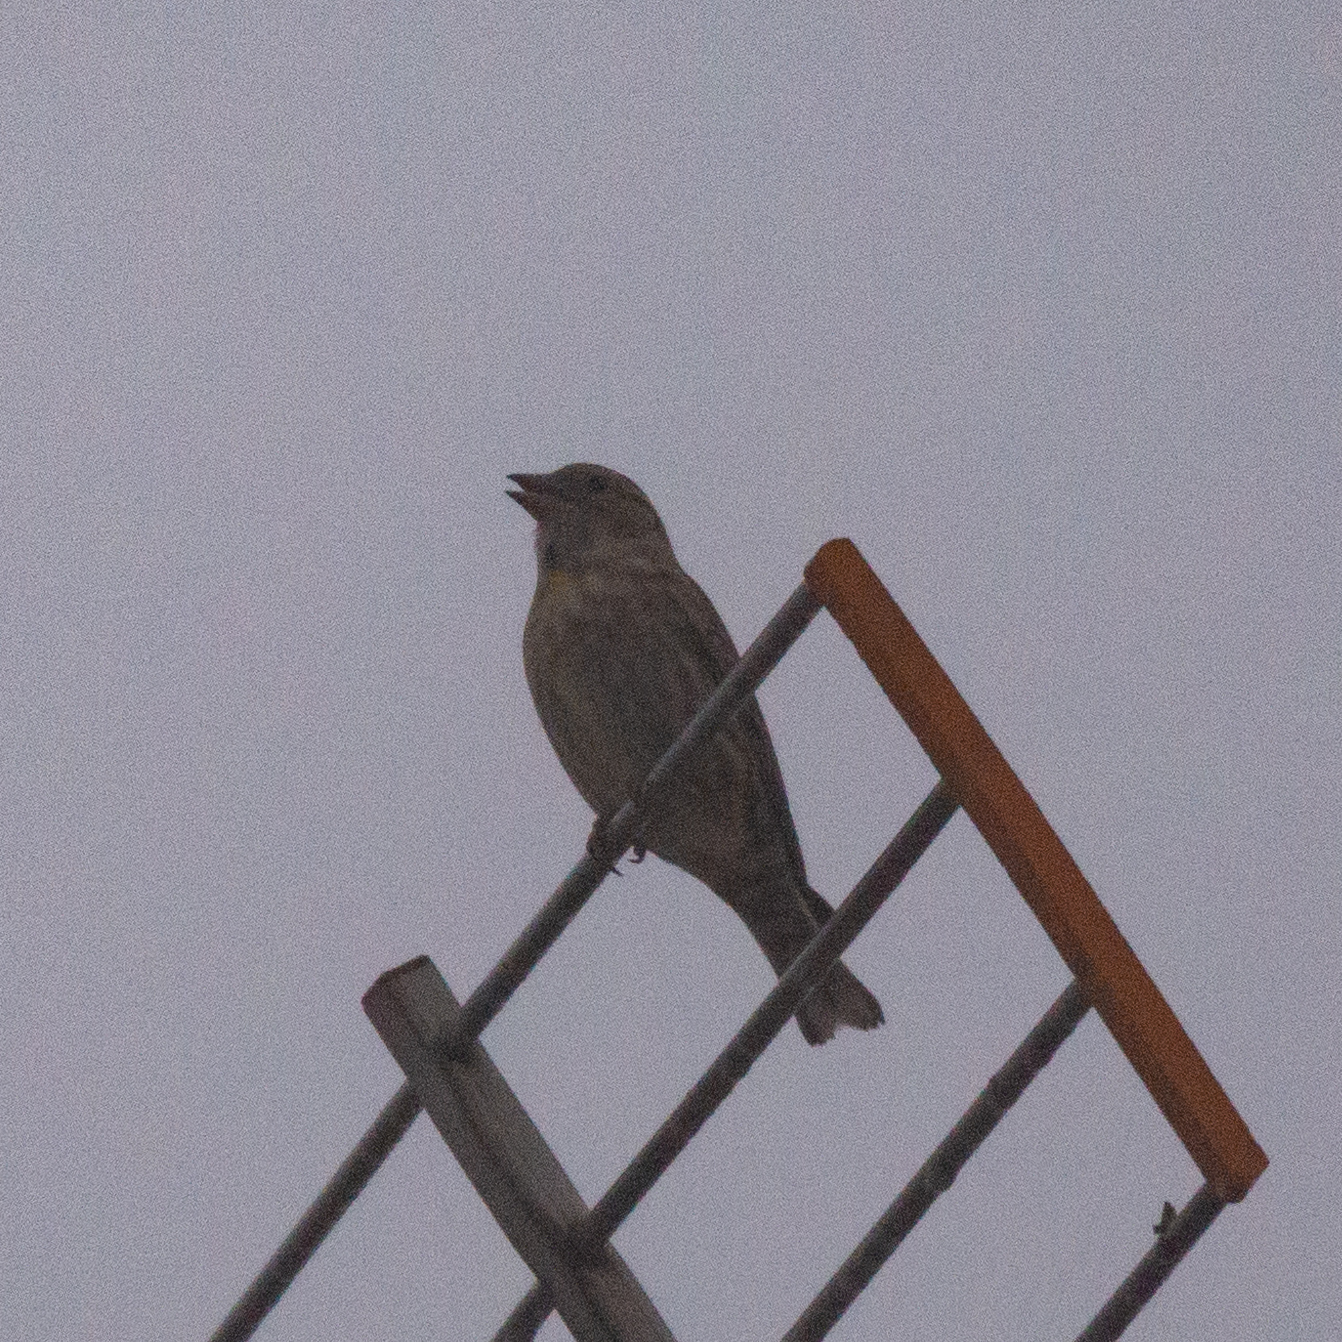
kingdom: Animalia
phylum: Chordata
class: Aves
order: Passeriformes
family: Passeridae
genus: Petronia
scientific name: Petronia petronia
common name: Rock sparrow
